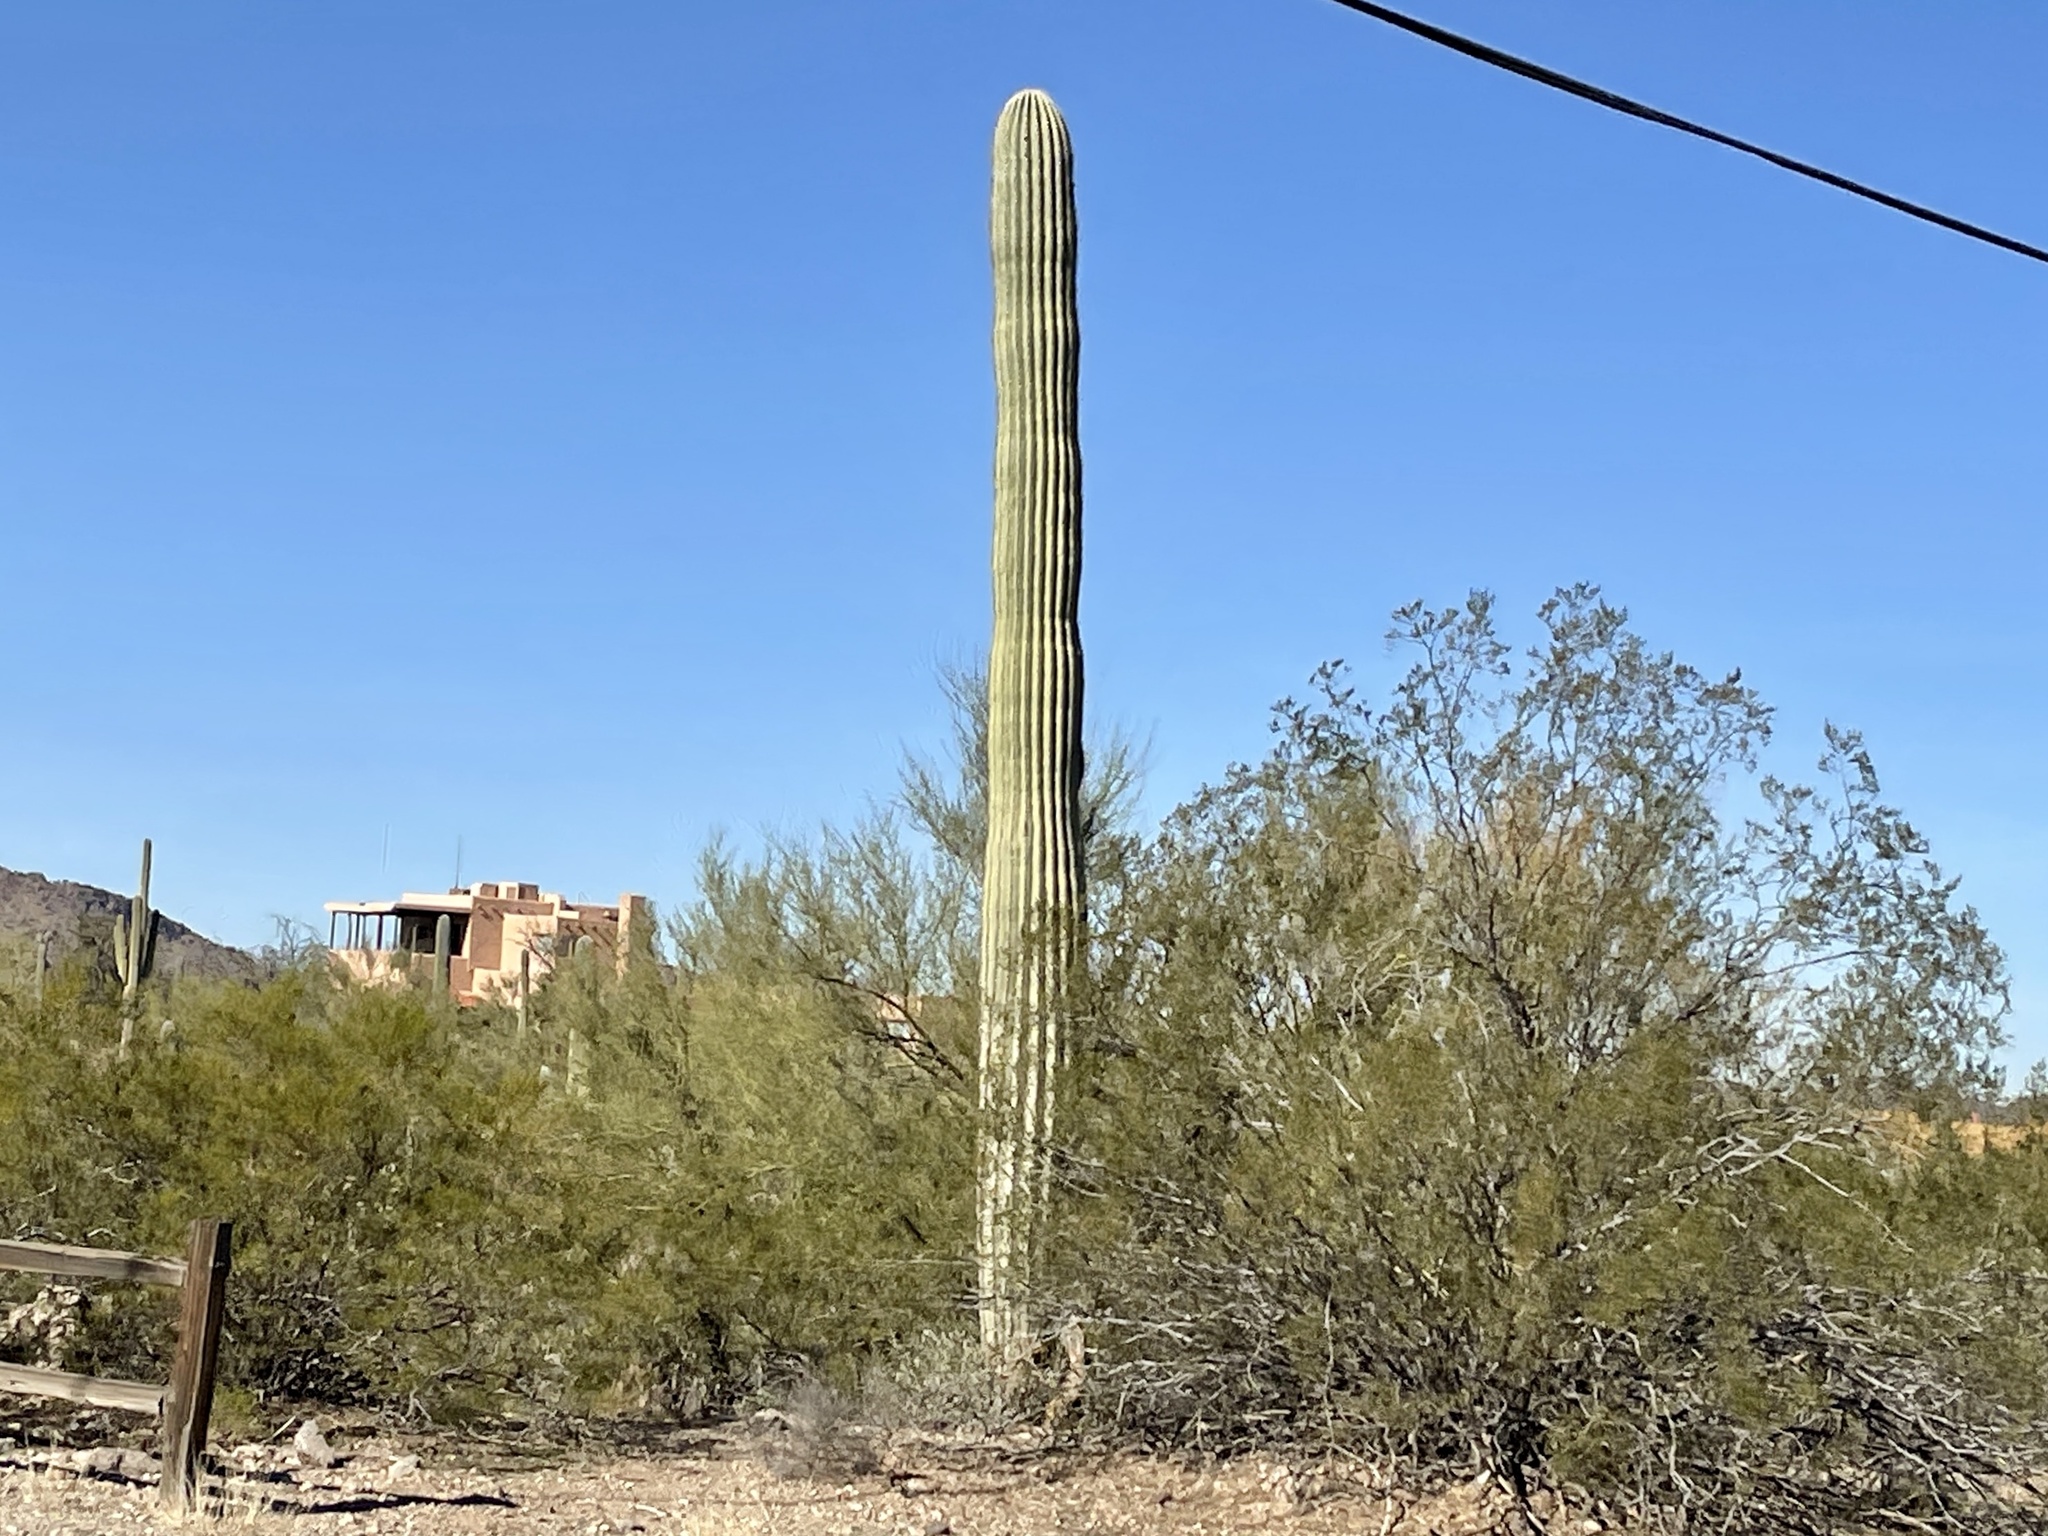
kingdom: Plantae
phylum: Tracheophyta
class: Magnoliopsida
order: Caryophyllales
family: Cactaceae
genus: Carnegiea
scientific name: Carnegiea gigantea
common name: Saguaro
